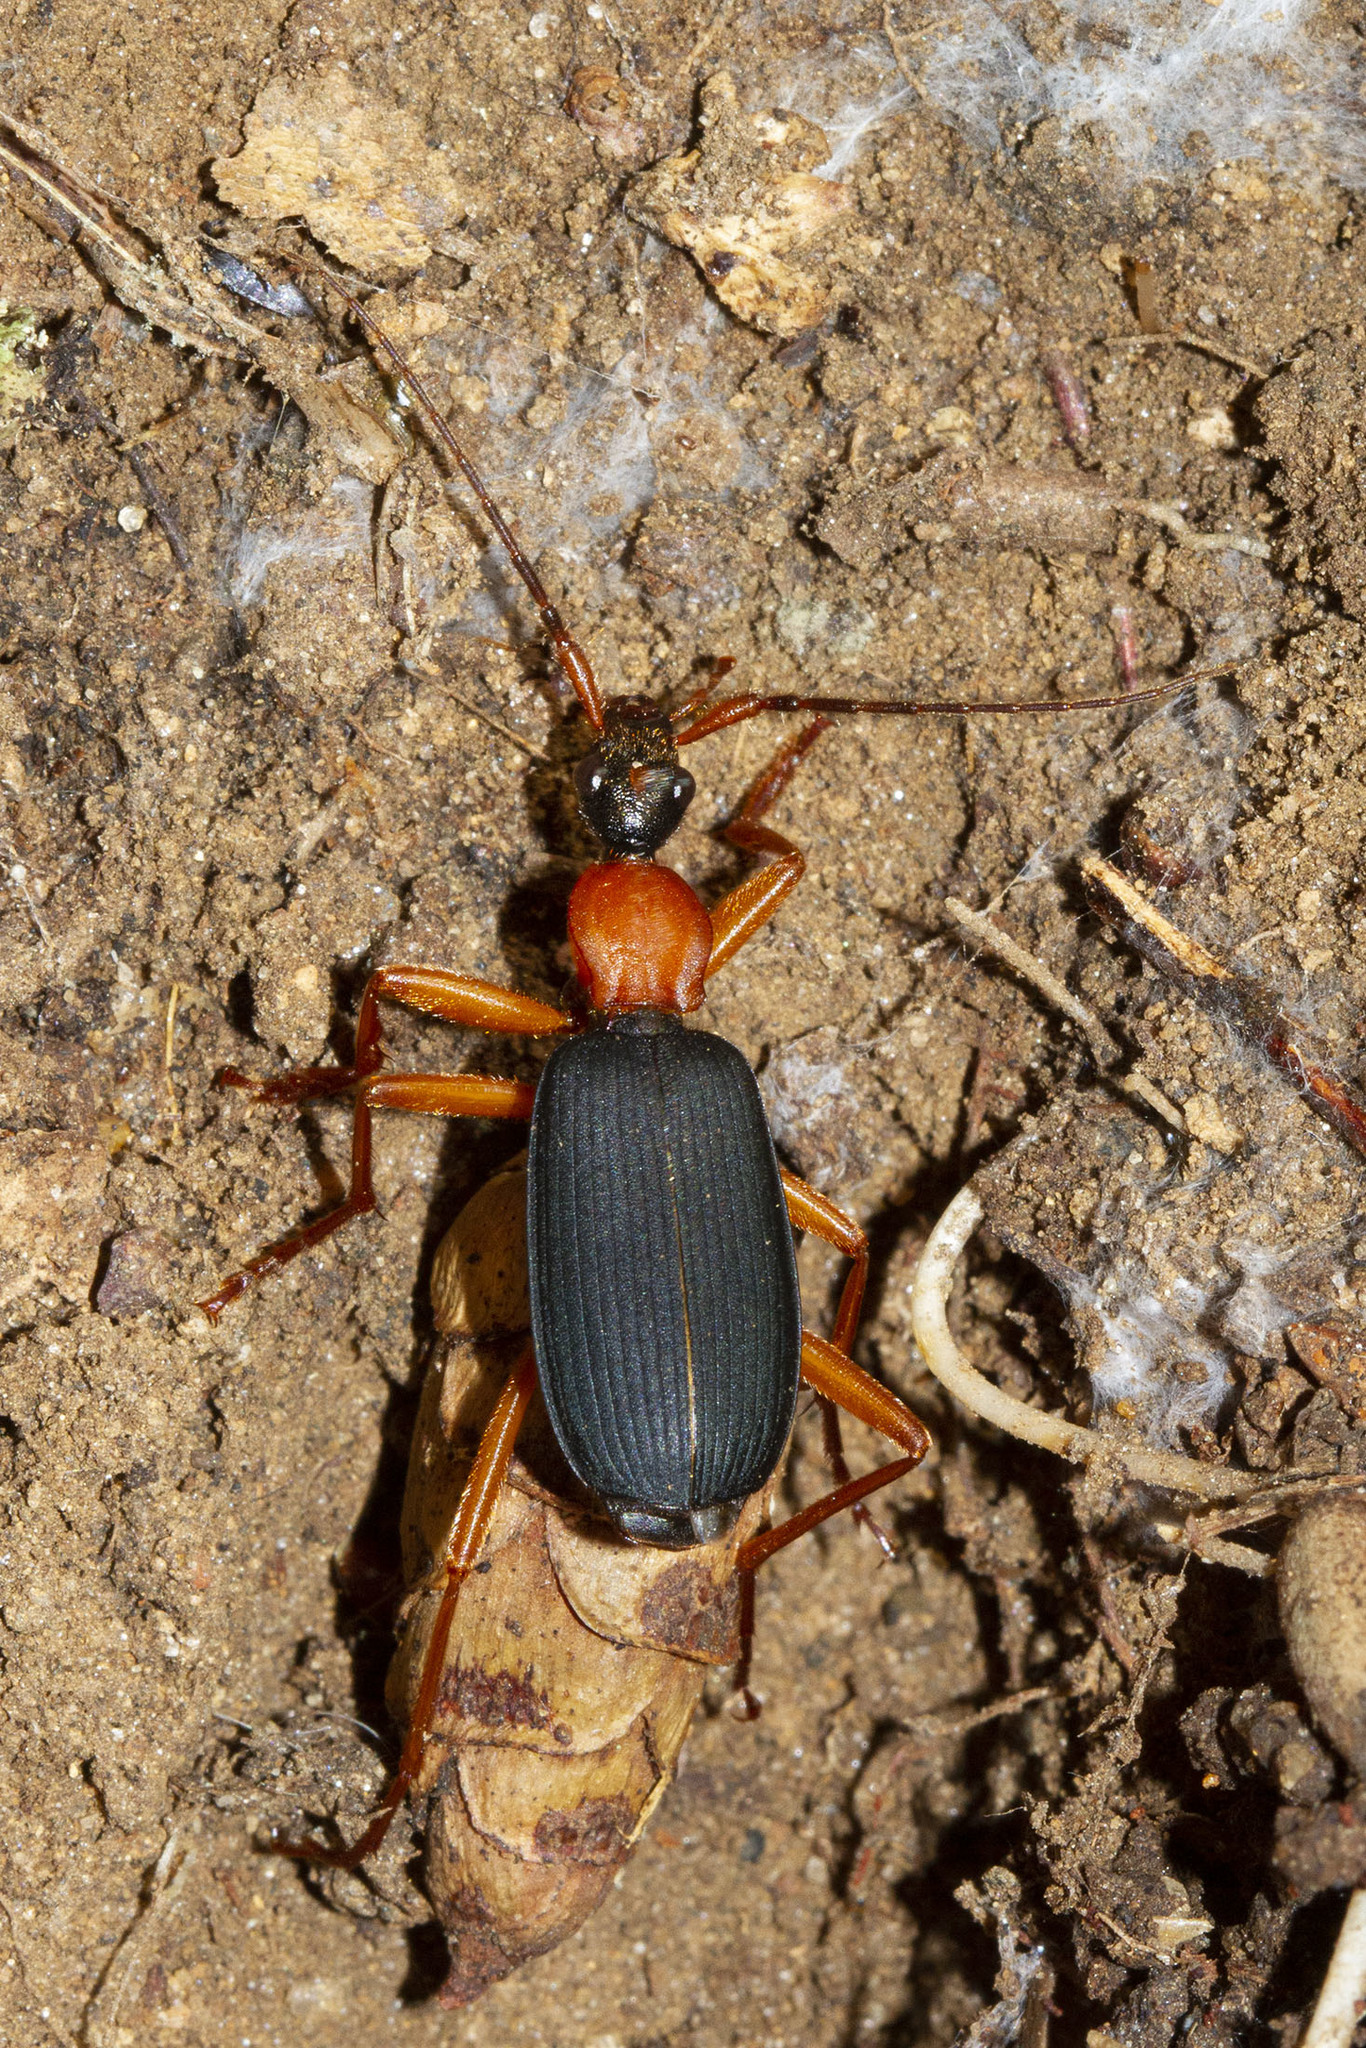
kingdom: Animalia
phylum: Arthropoda
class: Insecta
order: Coleoptera
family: Carabidae
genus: Galerita
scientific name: Galerita bicolor
